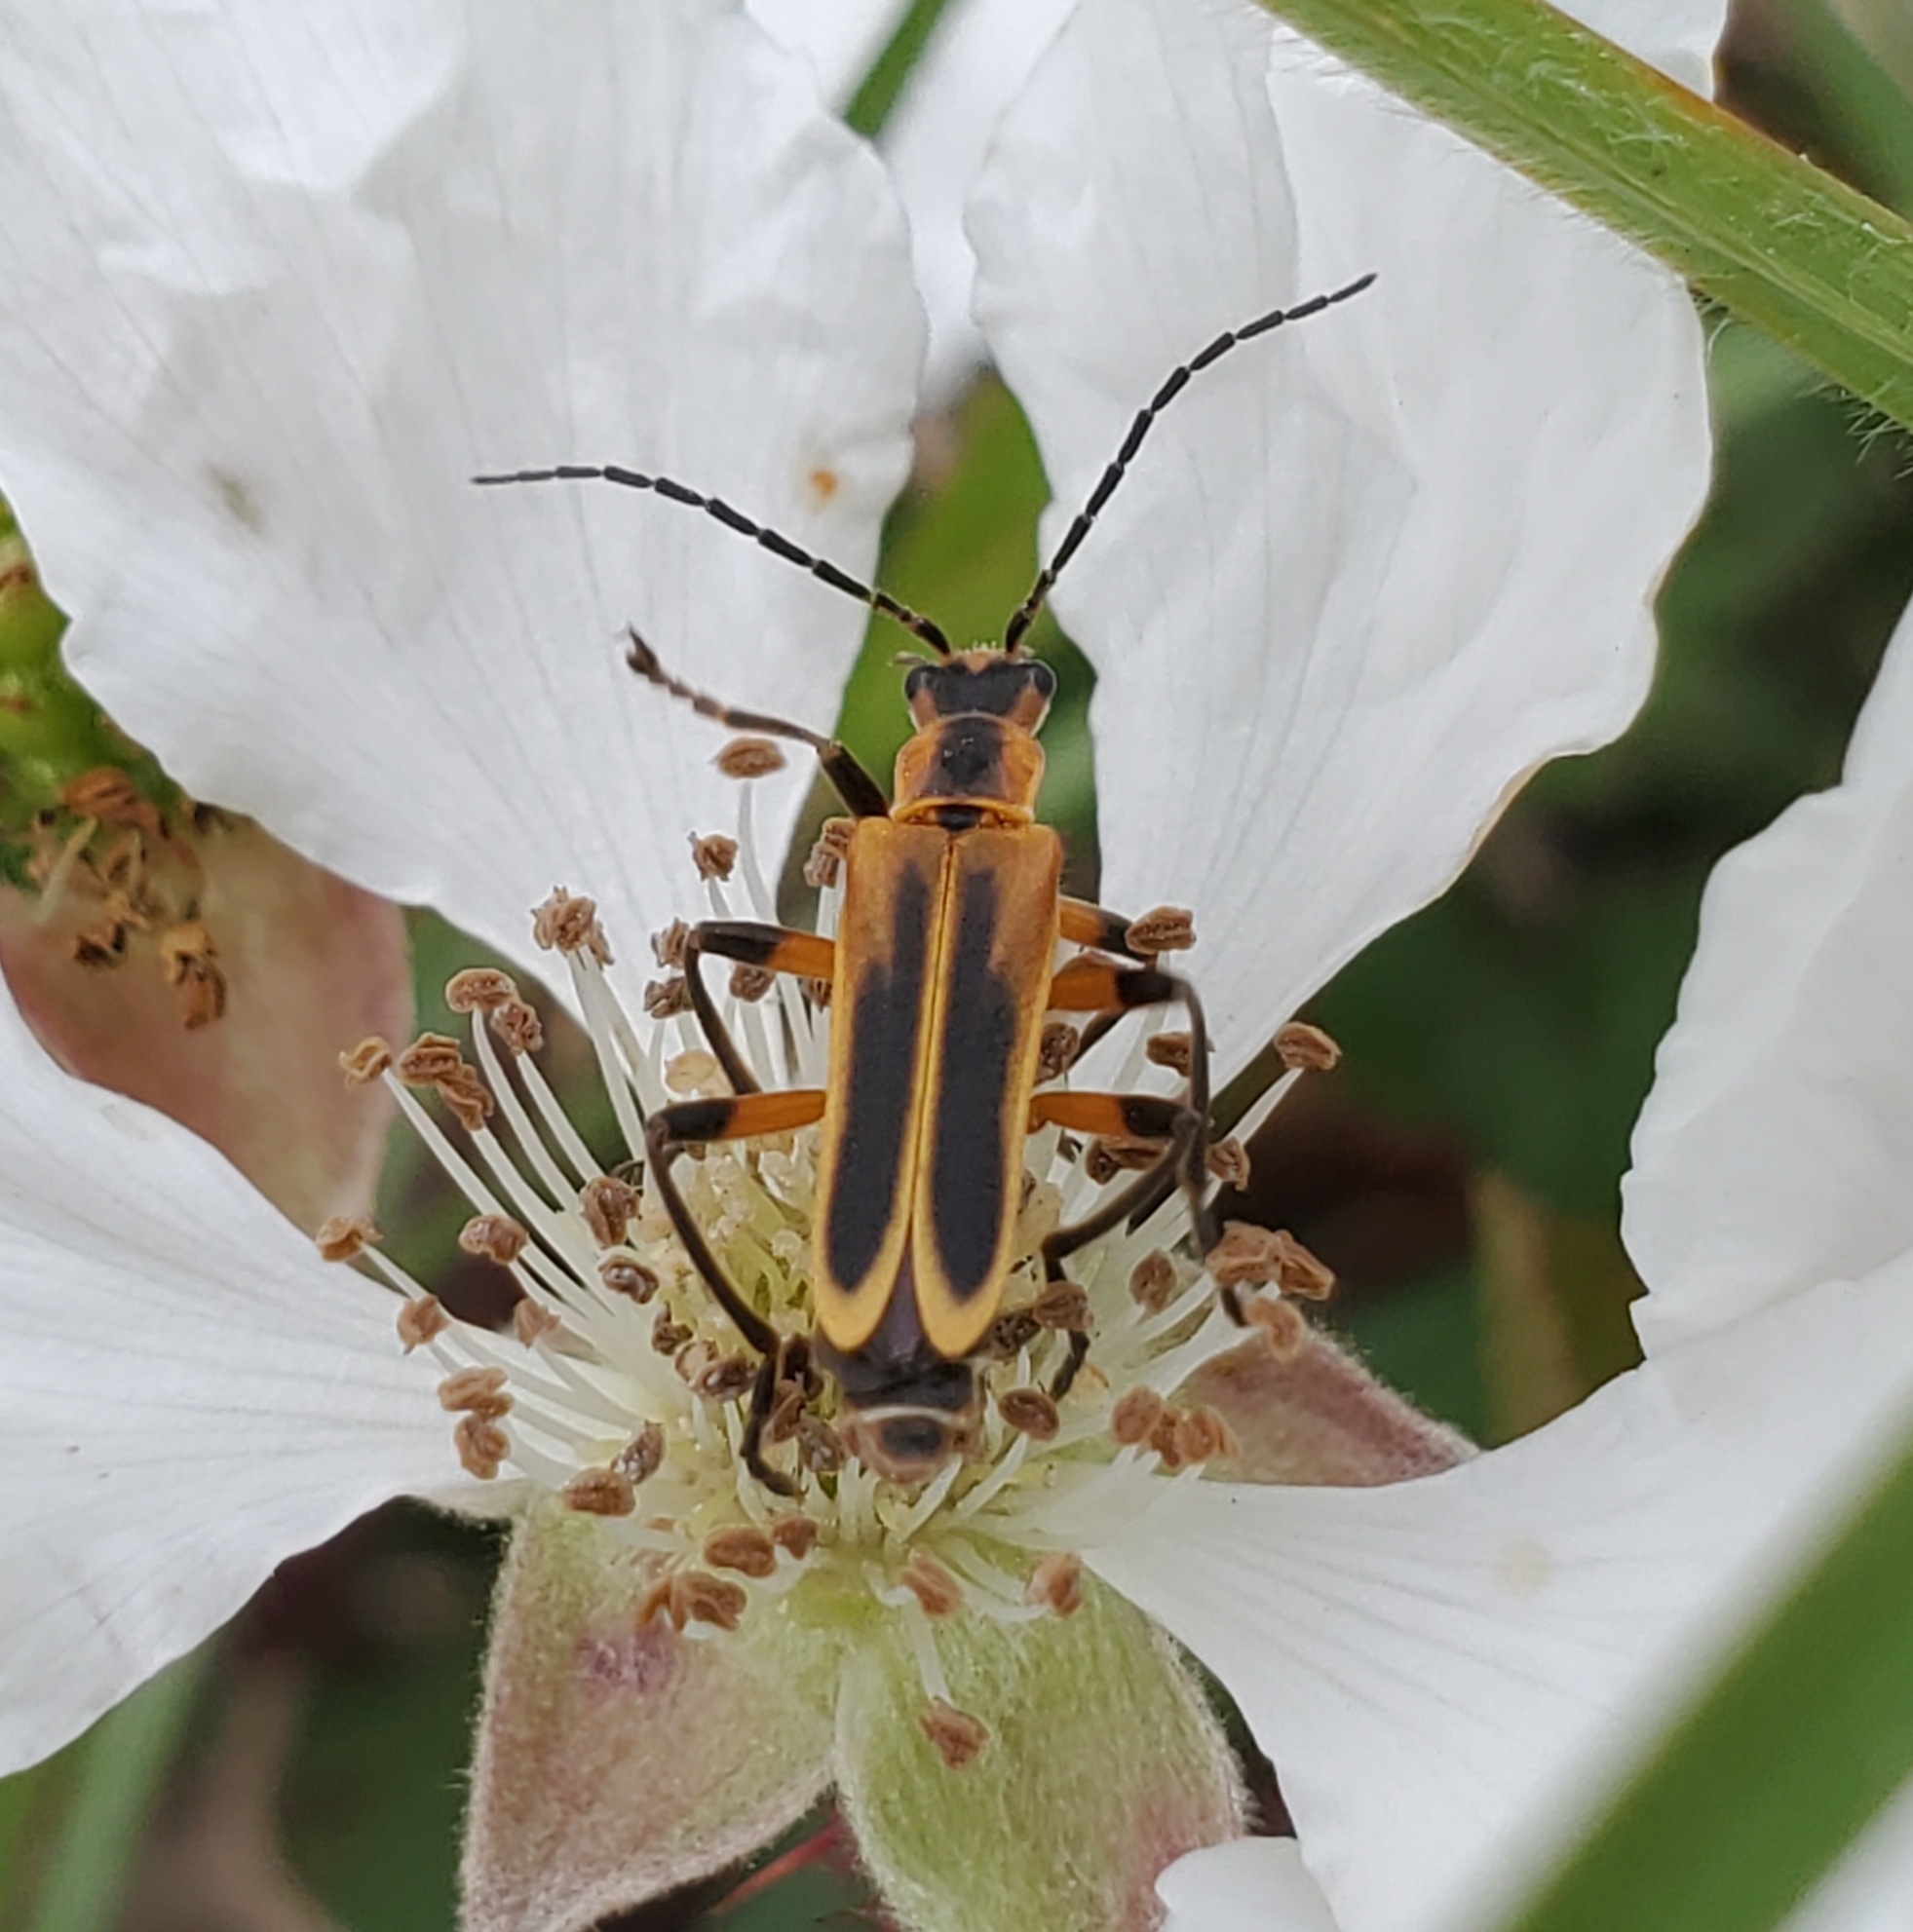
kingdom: Animalia
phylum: Arthropoda
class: Insecta
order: Coleoptera
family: Cantharidae
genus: Chauliognathus
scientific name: Chauliognathus marginatus
